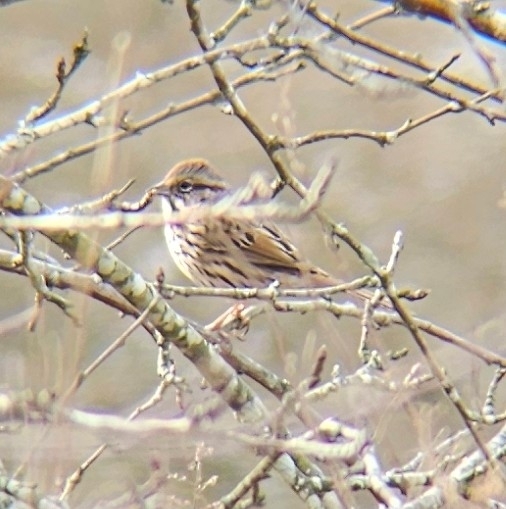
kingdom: Animalia
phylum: Chordata
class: Aves
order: Passeriformes
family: Passerellidae
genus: Melospiza
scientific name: Melospiza melodia
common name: Song sparrow
